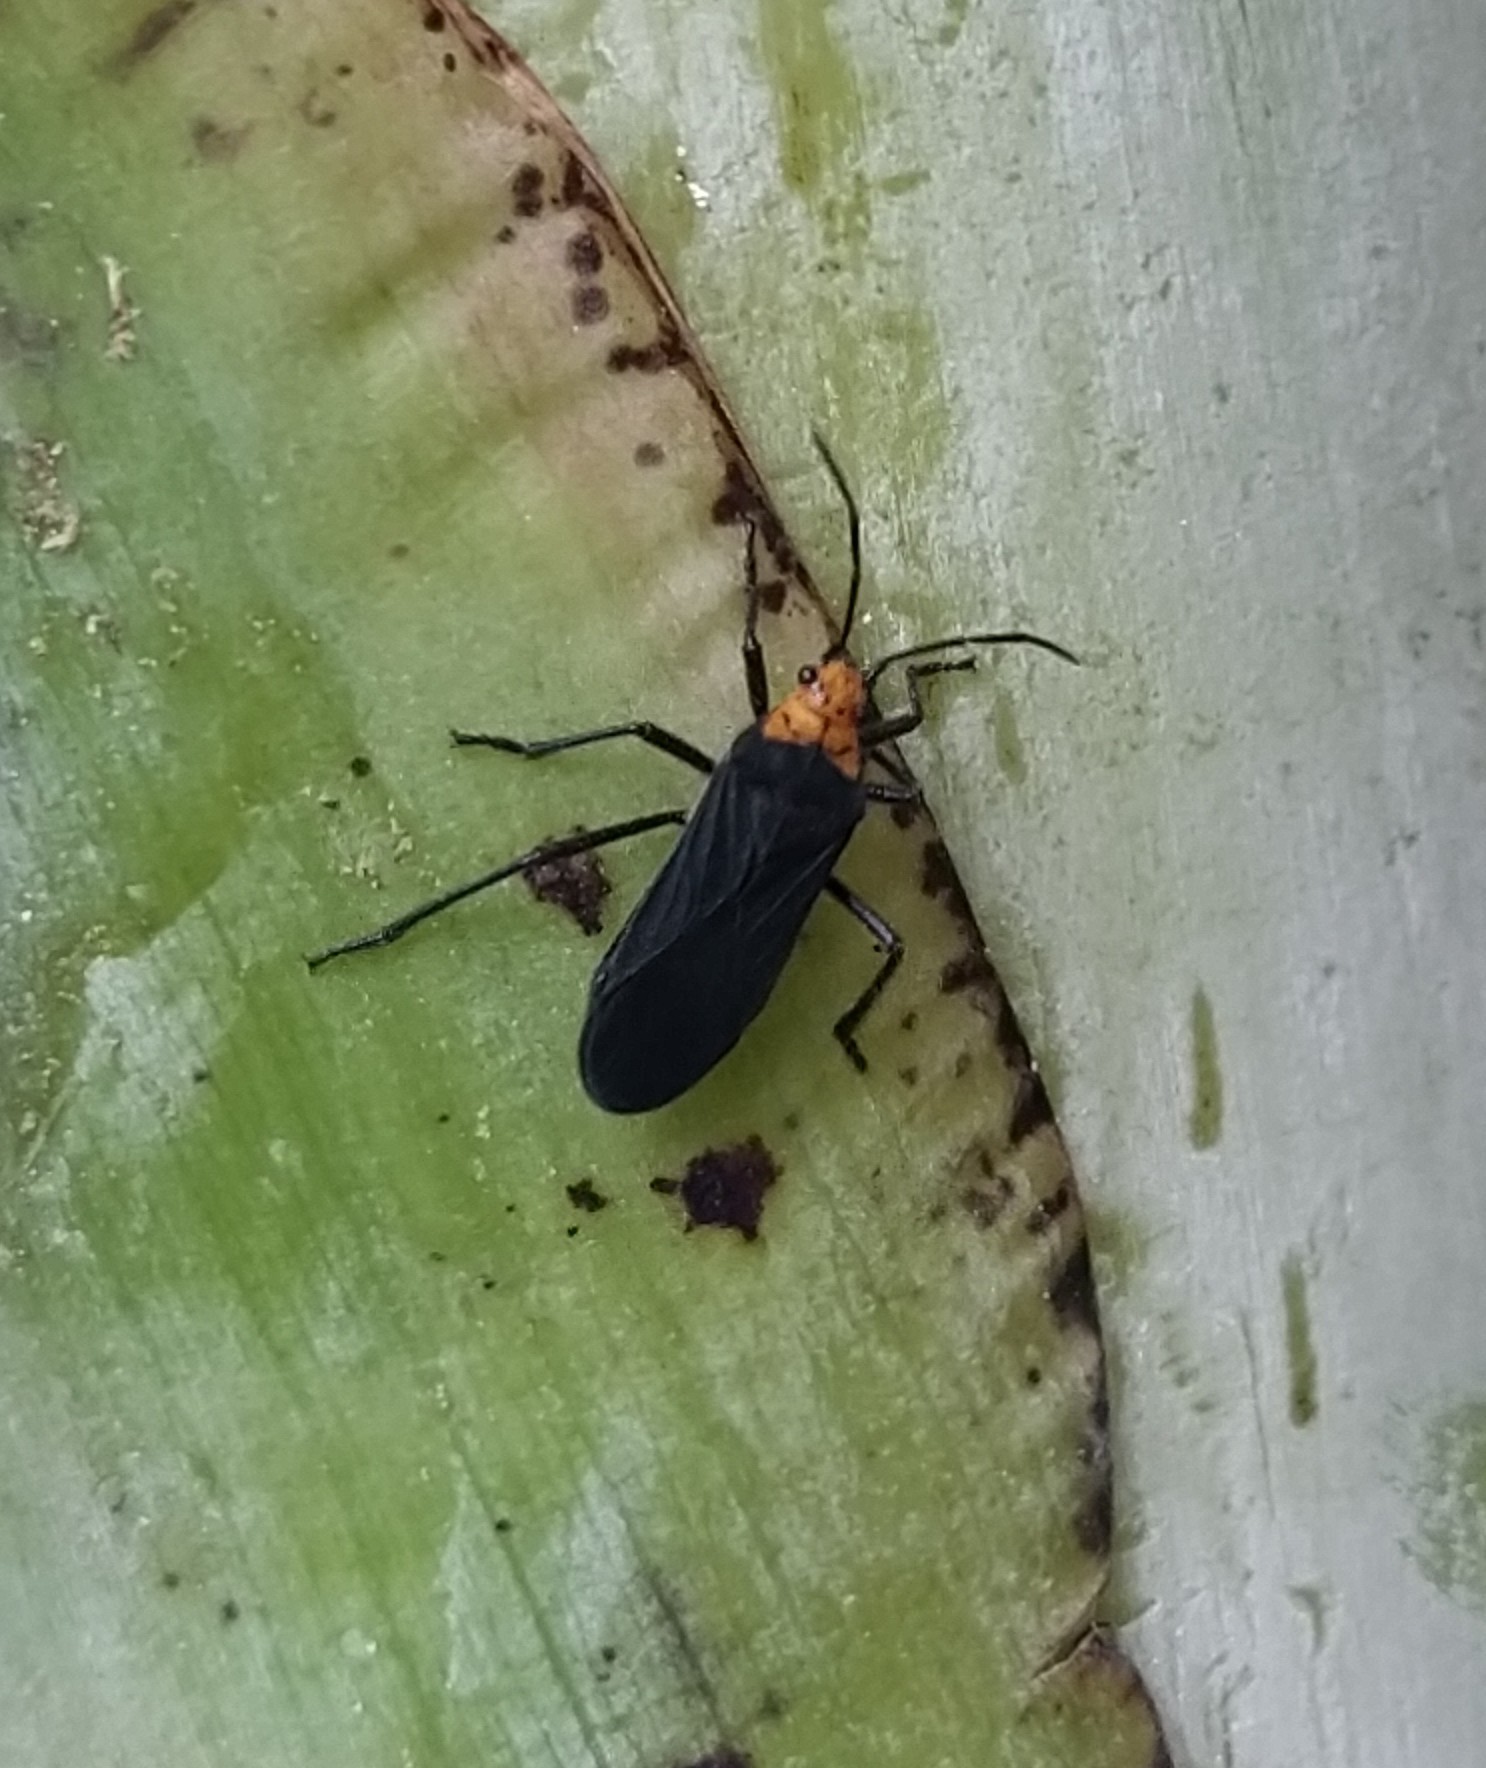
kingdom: Animalia
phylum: Arthropoda
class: Insecta
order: Hemiptera
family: Lygaeidae
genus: Oncopeltus
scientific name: Oncopeltus luctuosus
